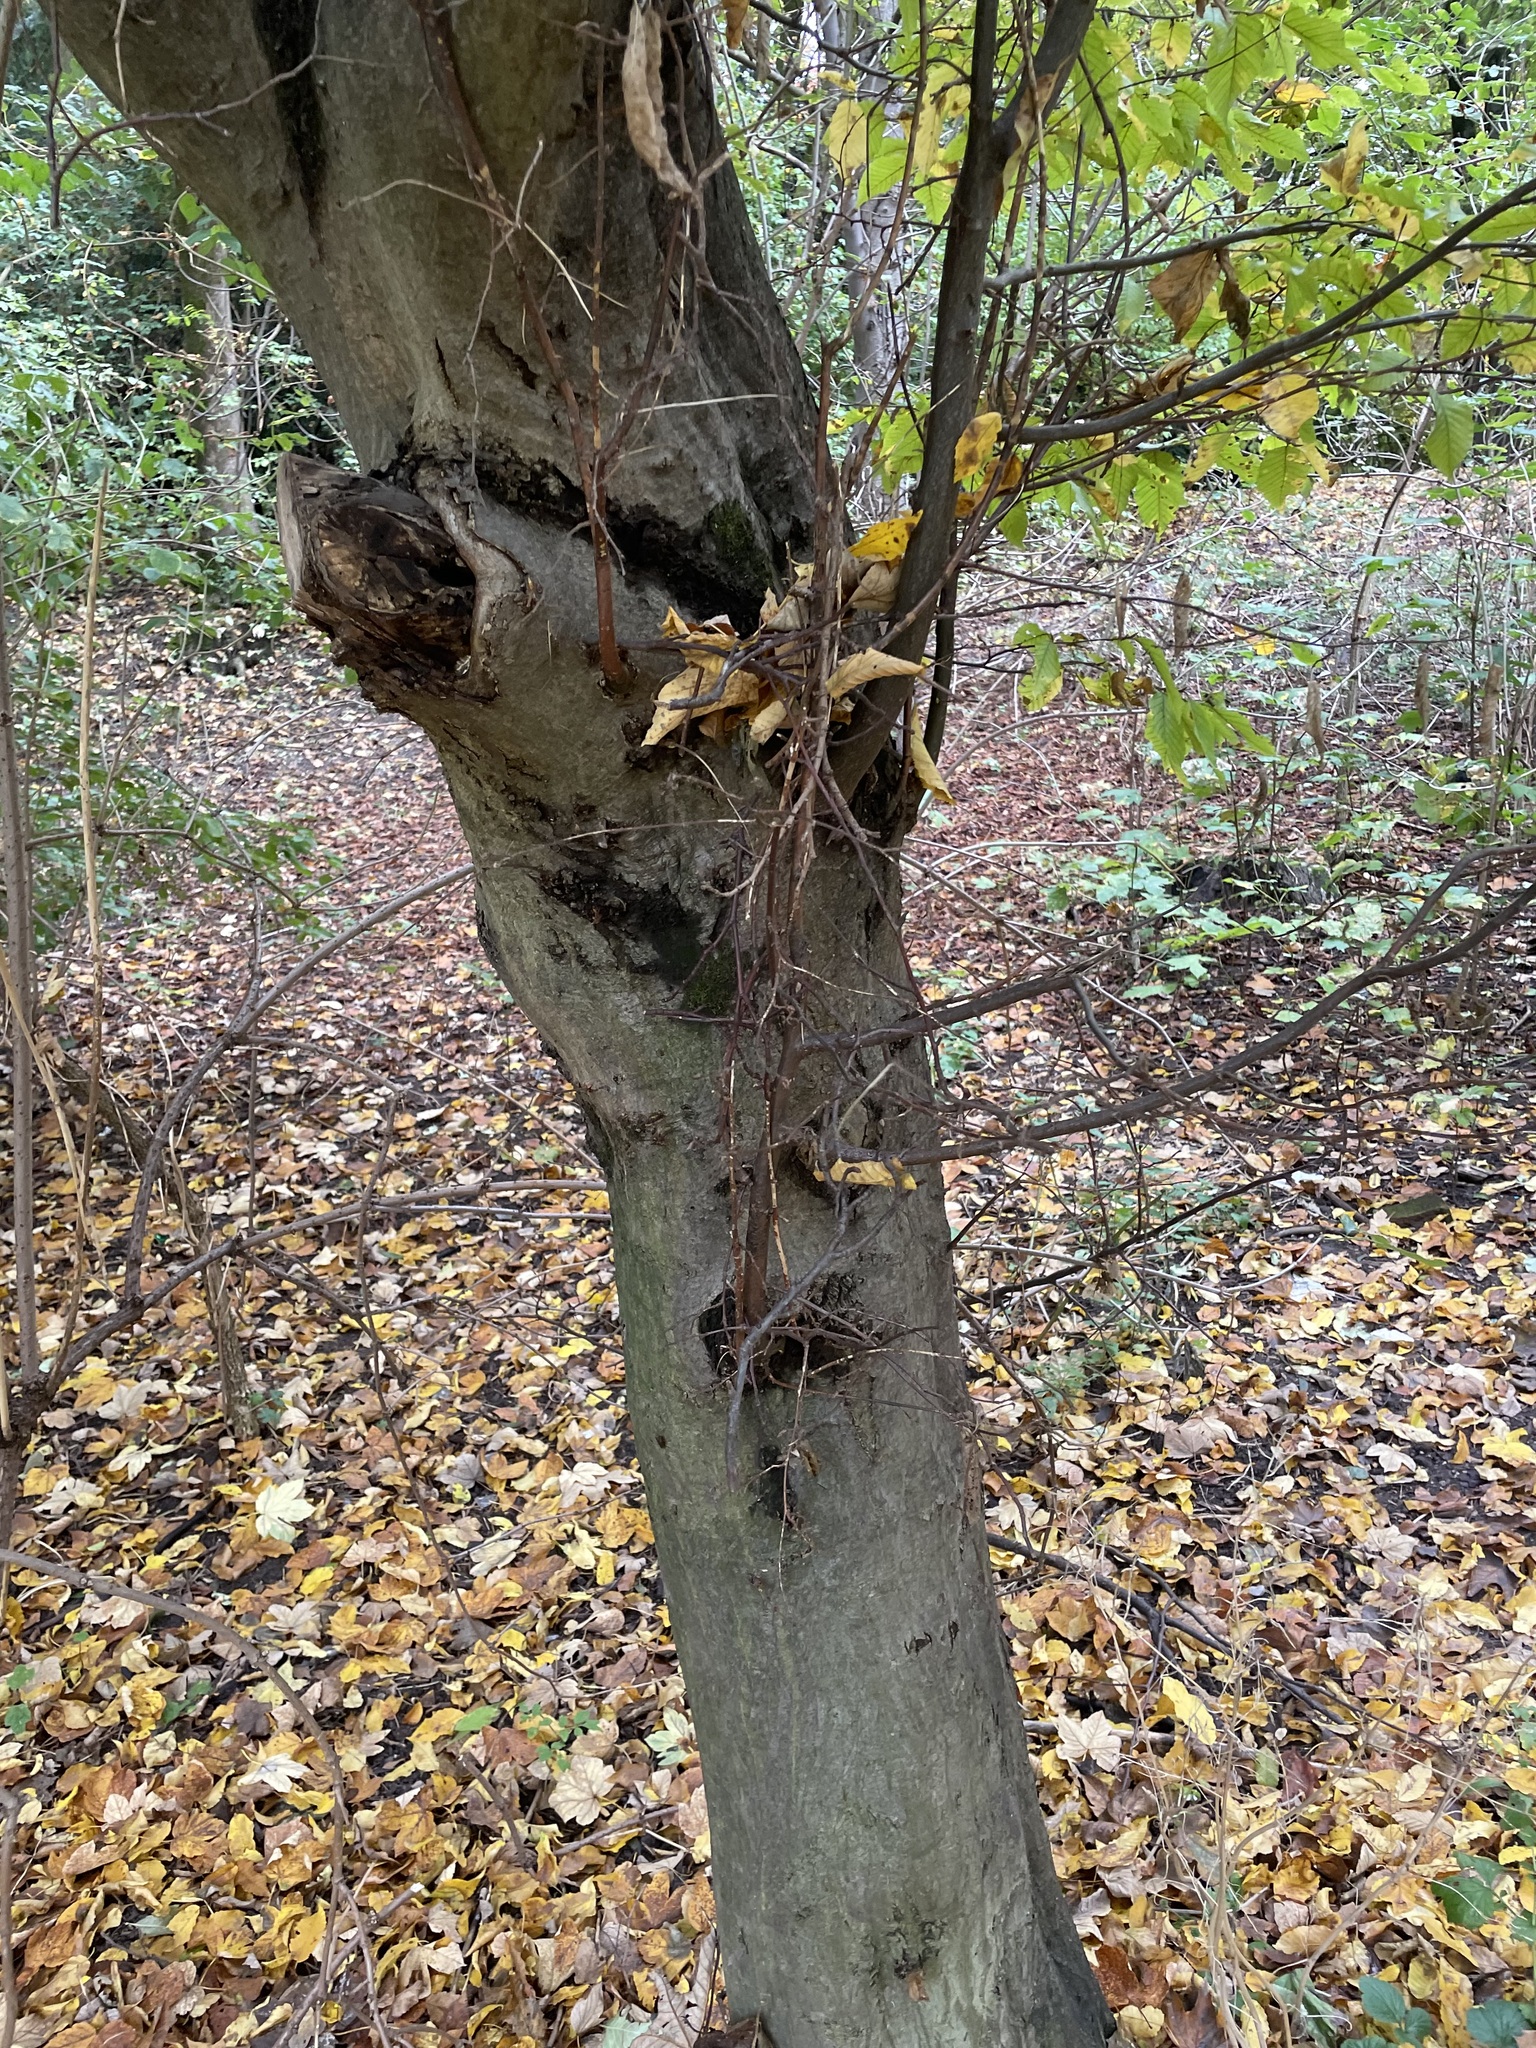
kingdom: Plantae
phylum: Tracheophyta
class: Magnoliopsida
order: Fagales
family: Betulaceae
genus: Carpinus
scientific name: Carpinus betulus
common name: Hornbeam
